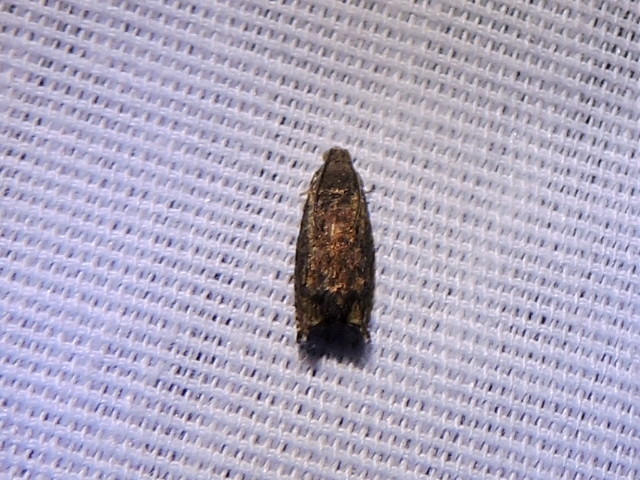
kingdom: Animalia
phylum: Arthropoda
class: Insecta
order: Lepidoptera
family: Tortricidae
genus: Cydia
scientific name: Cydia caryana
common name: Hickory shuckworm moth
